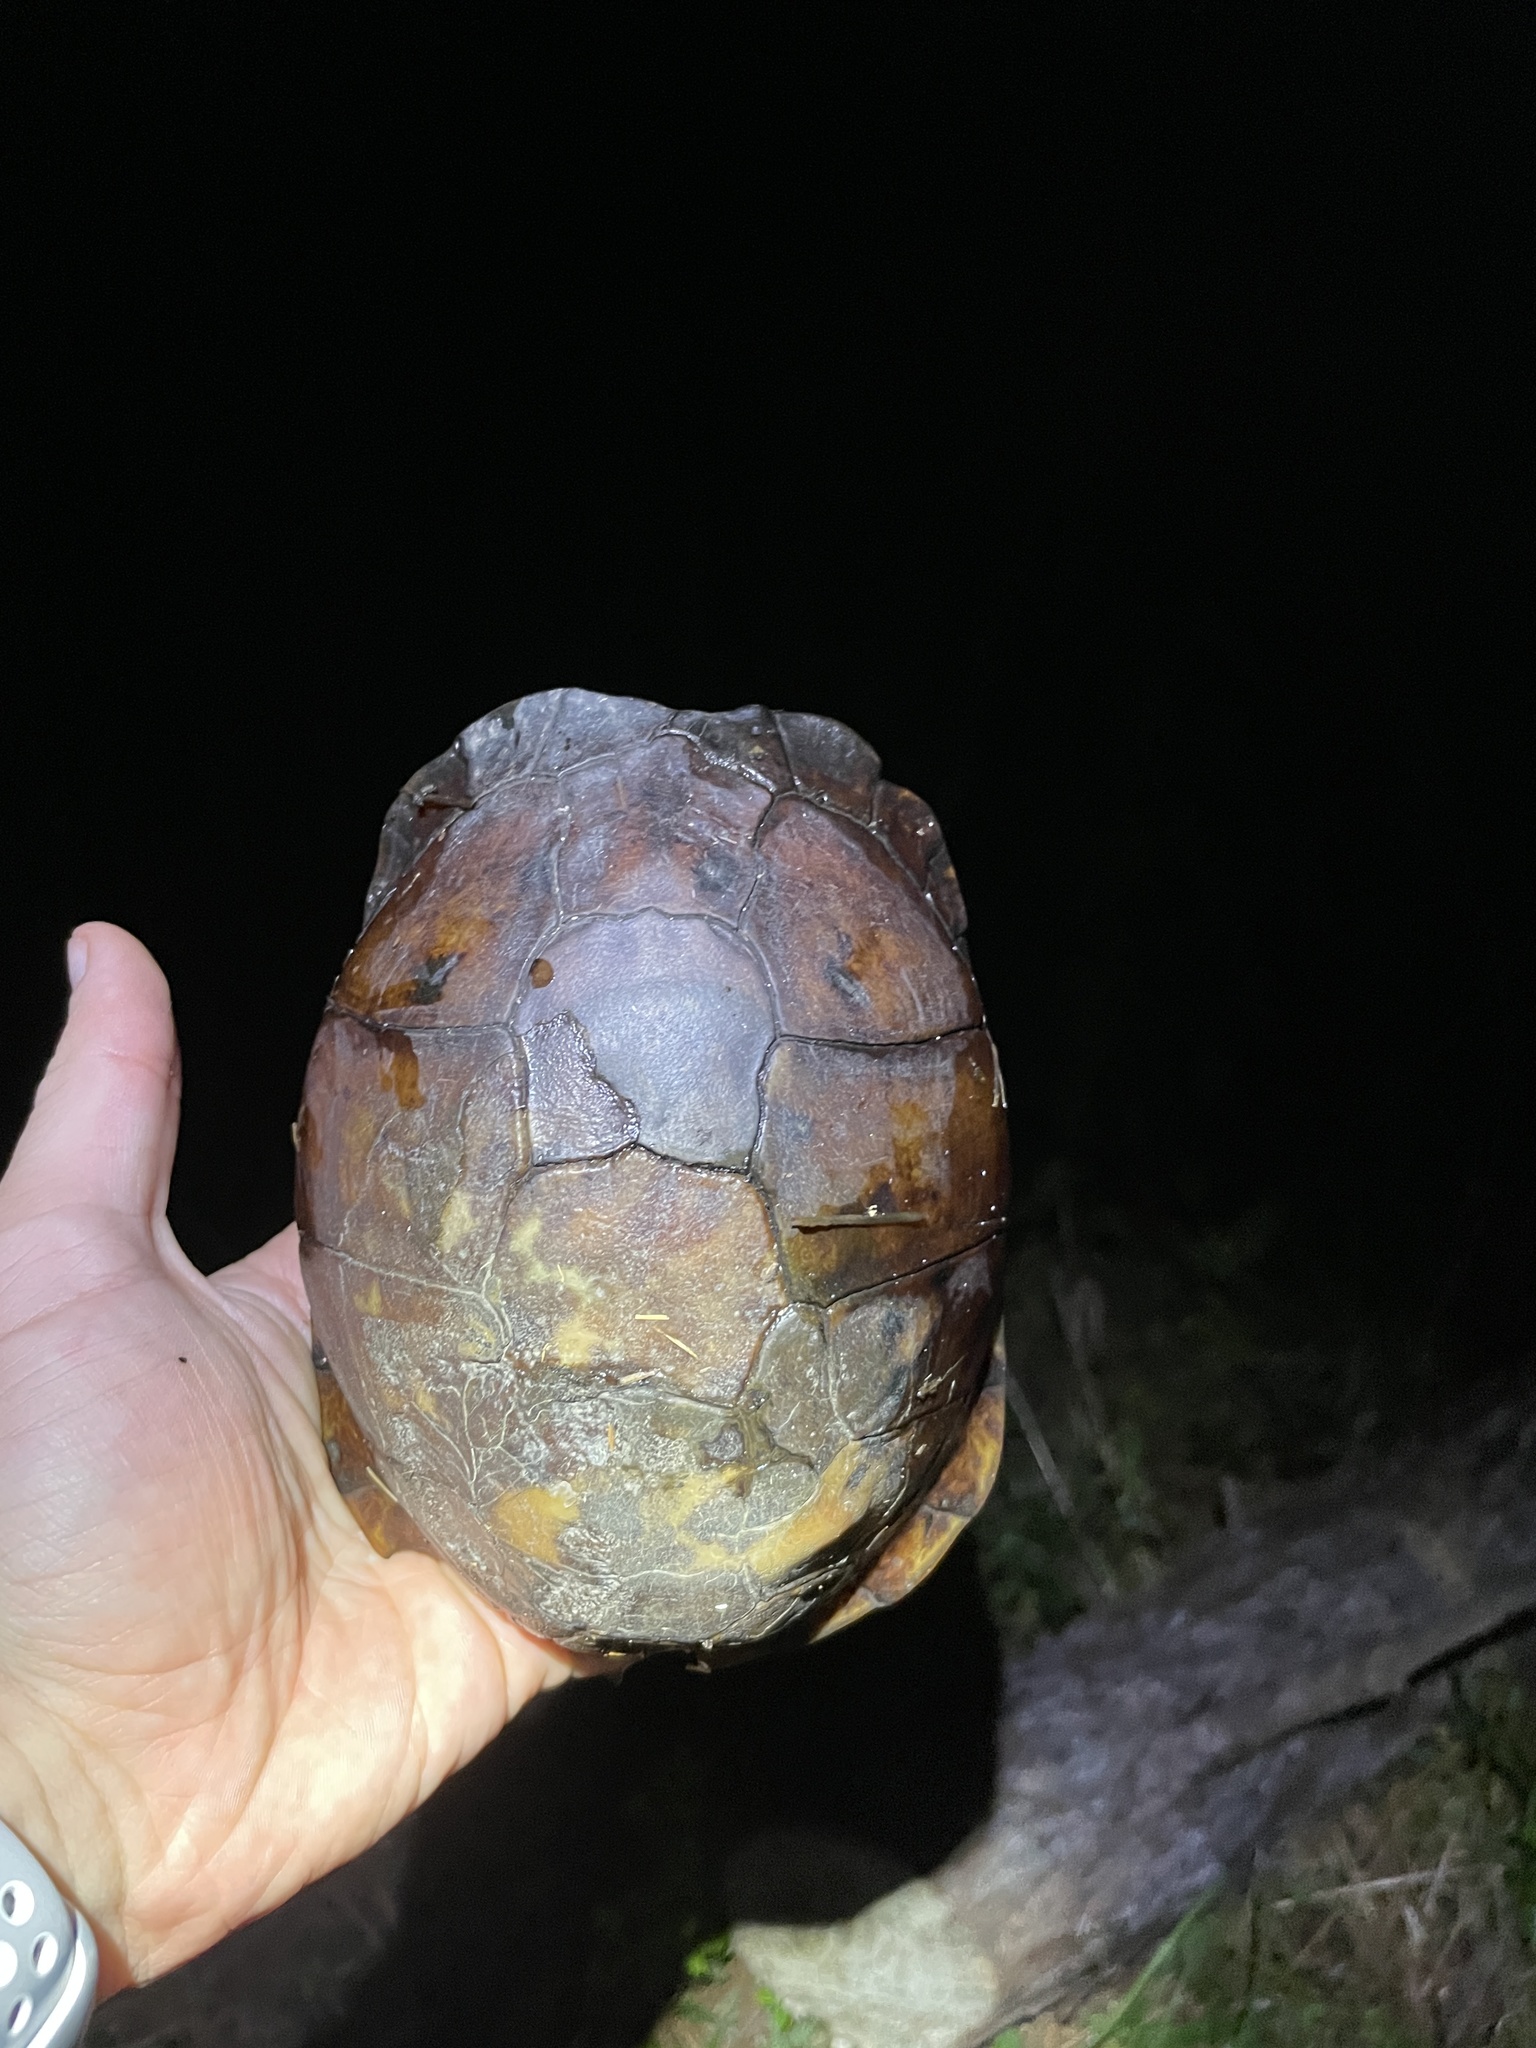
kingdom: Animalia
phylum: Chordata
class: Testudines
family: Emydidae
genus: Terrapene
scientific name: Terrapene carolina
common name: Common box turtle
